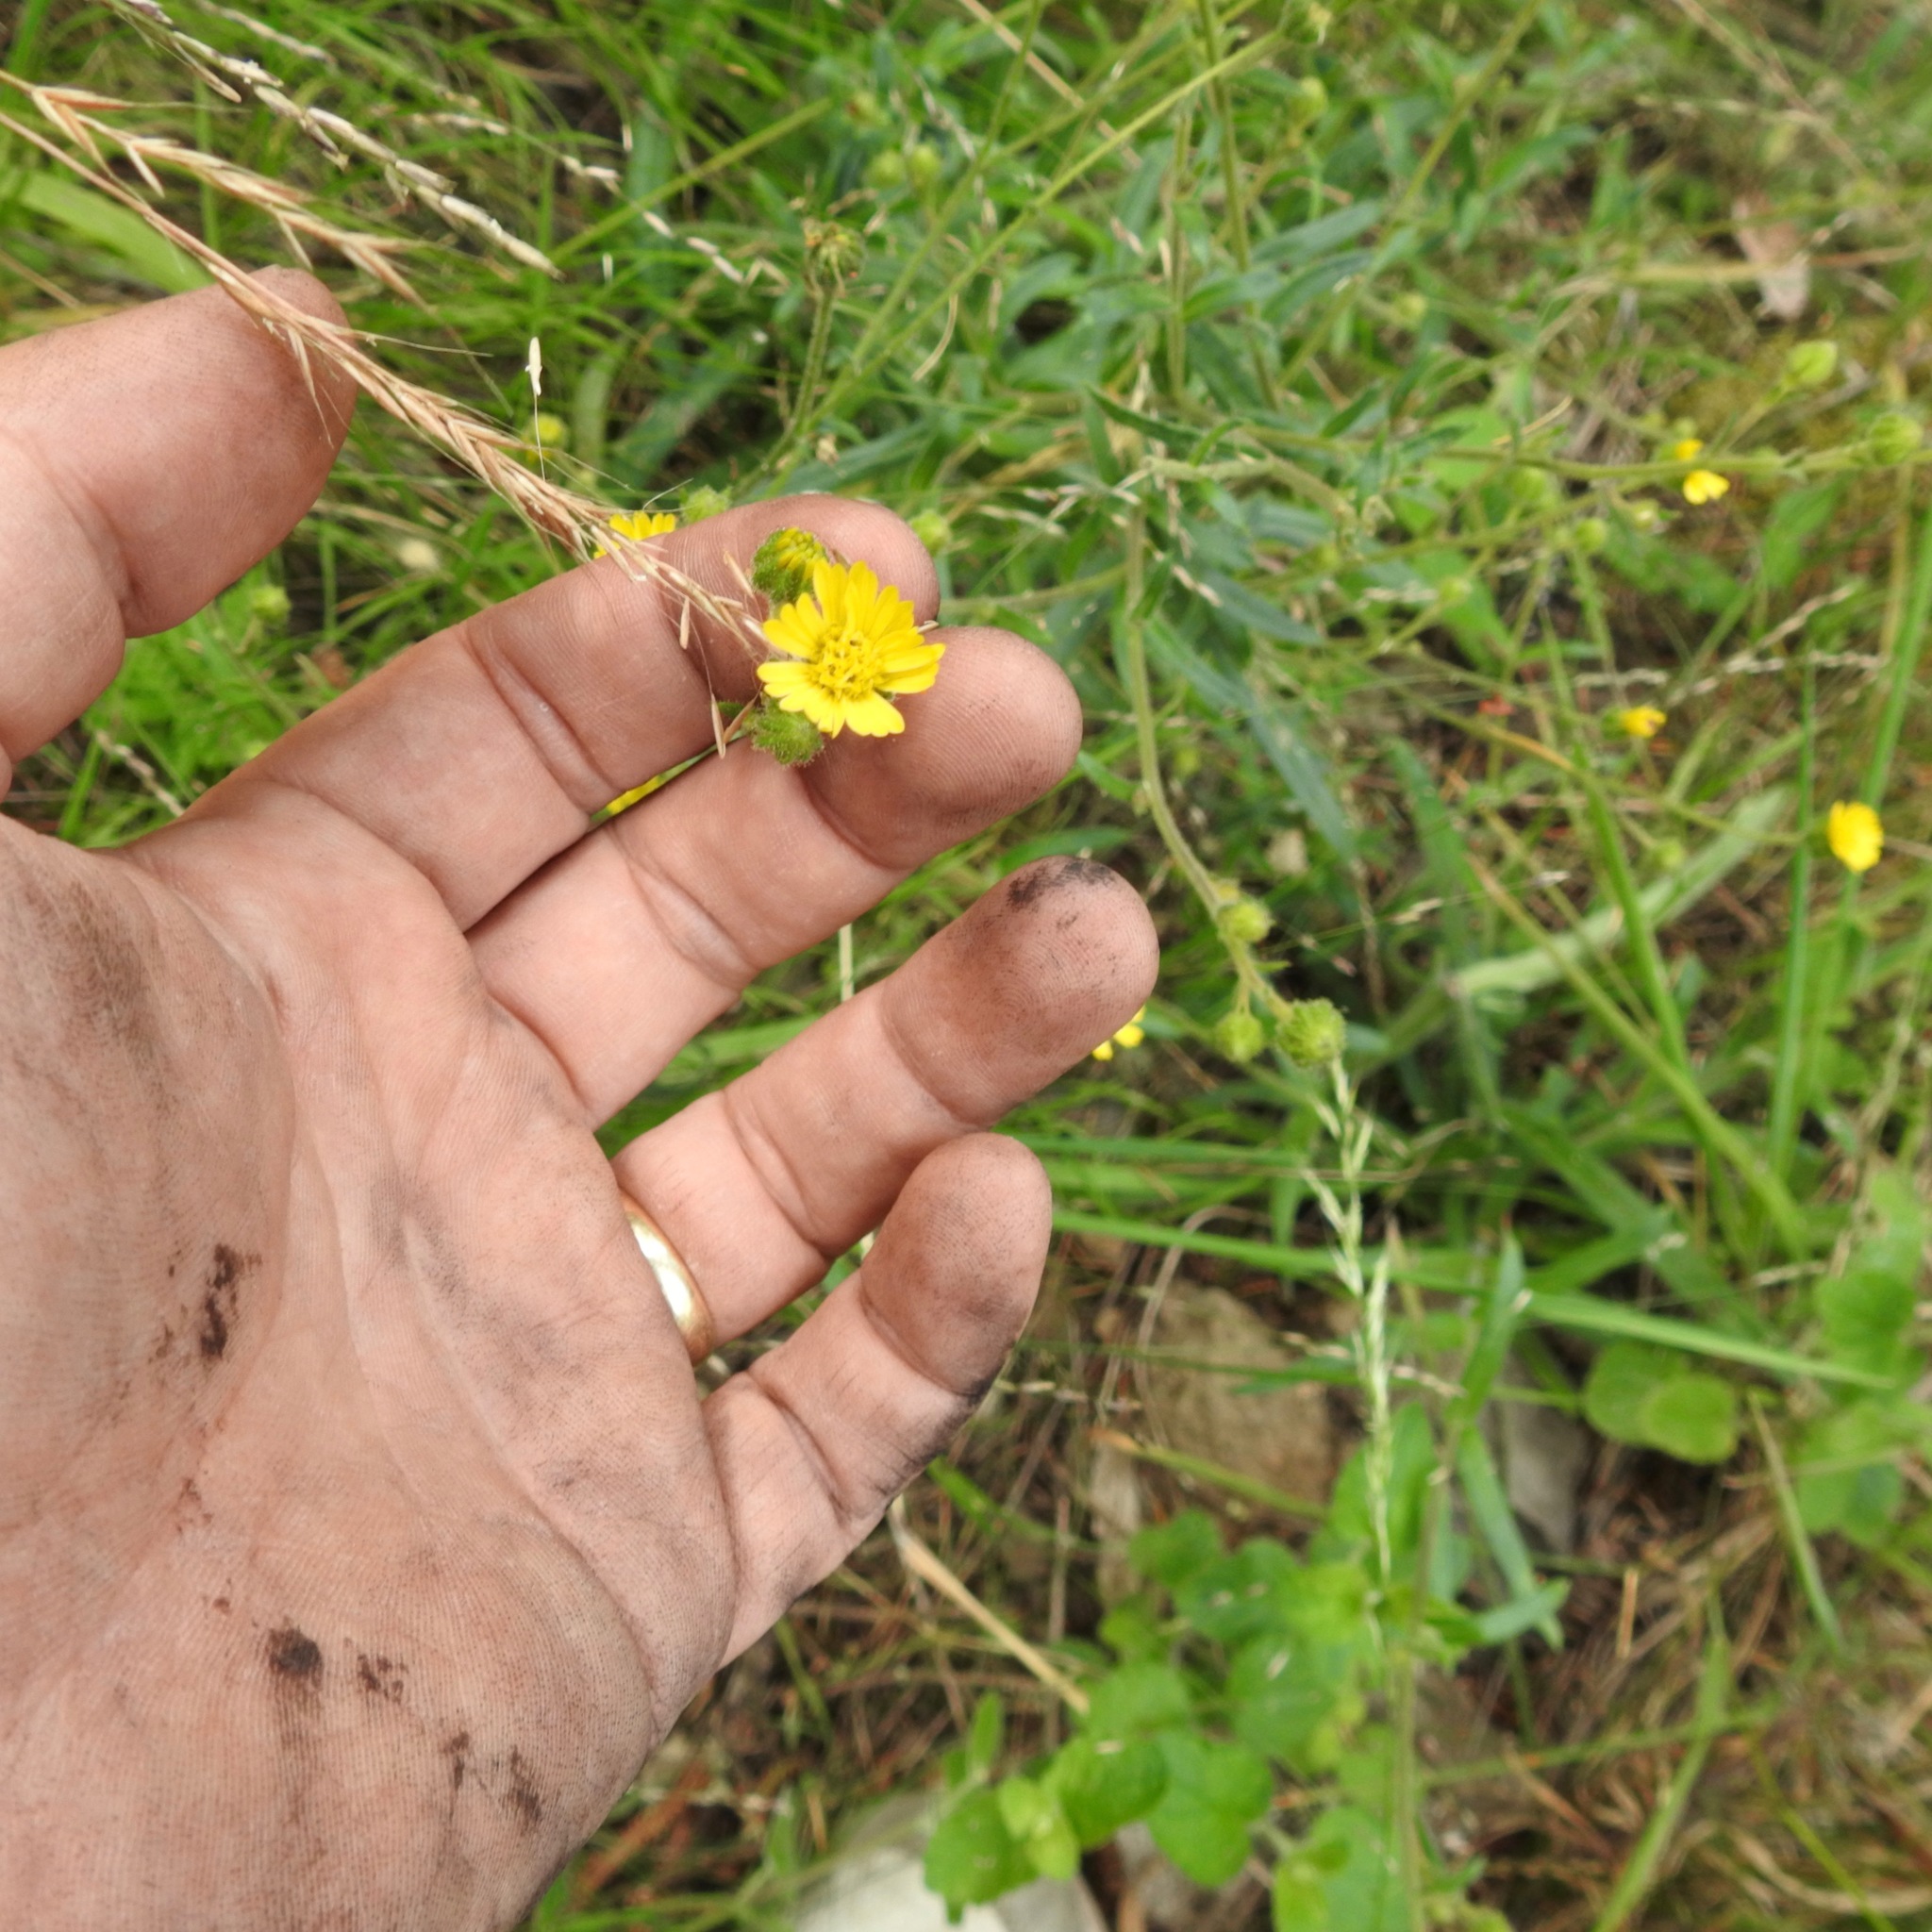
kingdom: Plantae
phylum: Tracheophyta
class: Magnoliopsida
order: Asterales
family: Asteraceae
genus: Madia
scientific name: Madia gracilis
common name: Grassy tarweed
